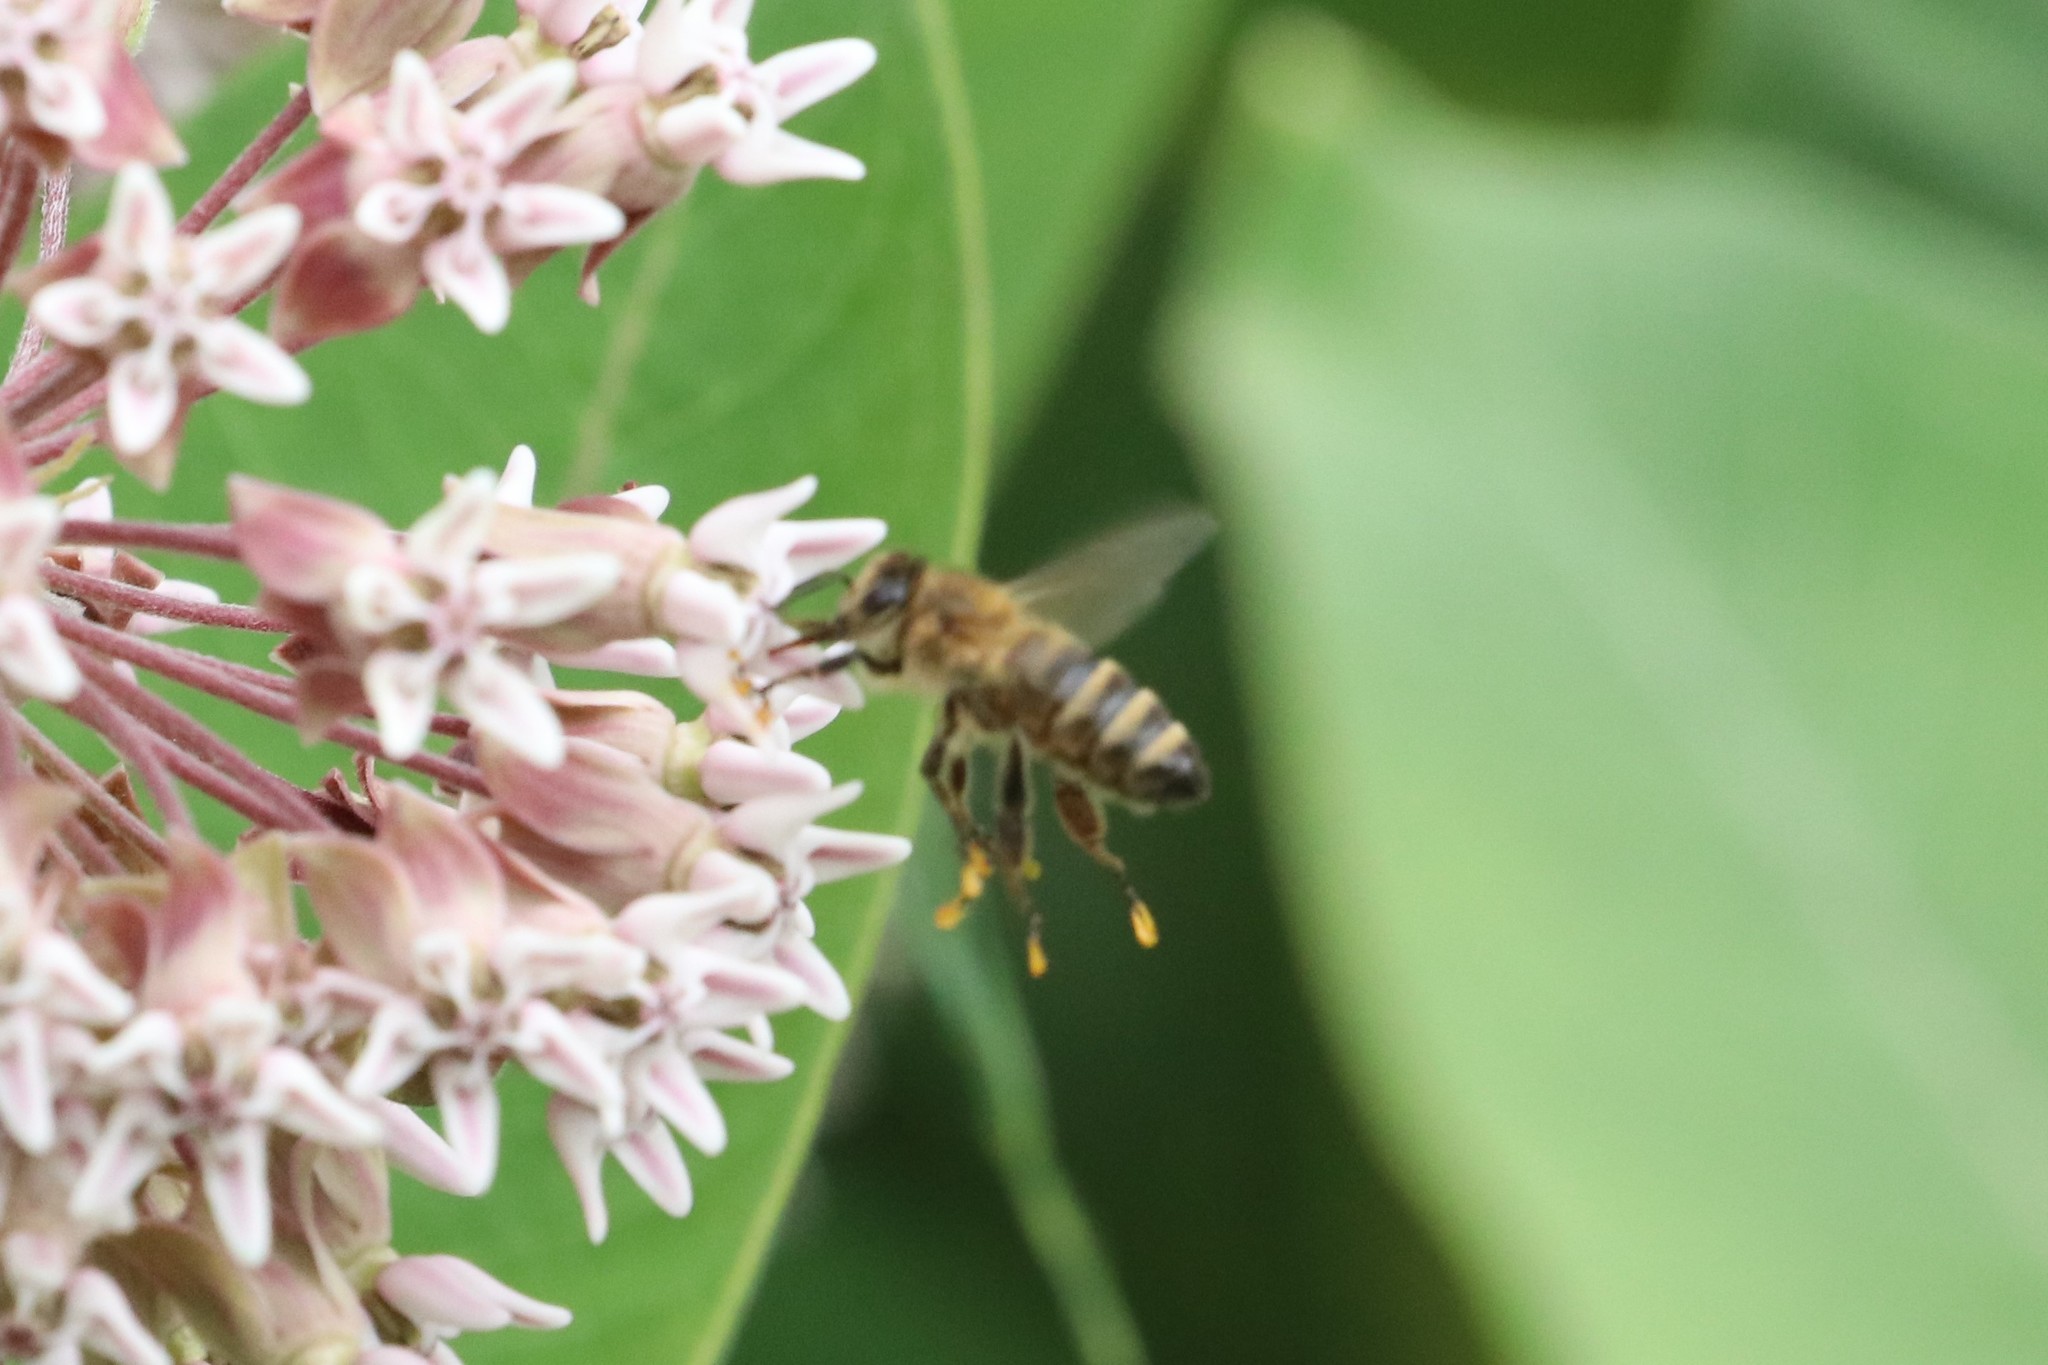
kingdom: Animalia
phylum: Arthropoda
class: Insecta
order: Hymenoptera
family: Apidae
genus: Apis
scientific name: Apis mellifera
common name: Honey bee
